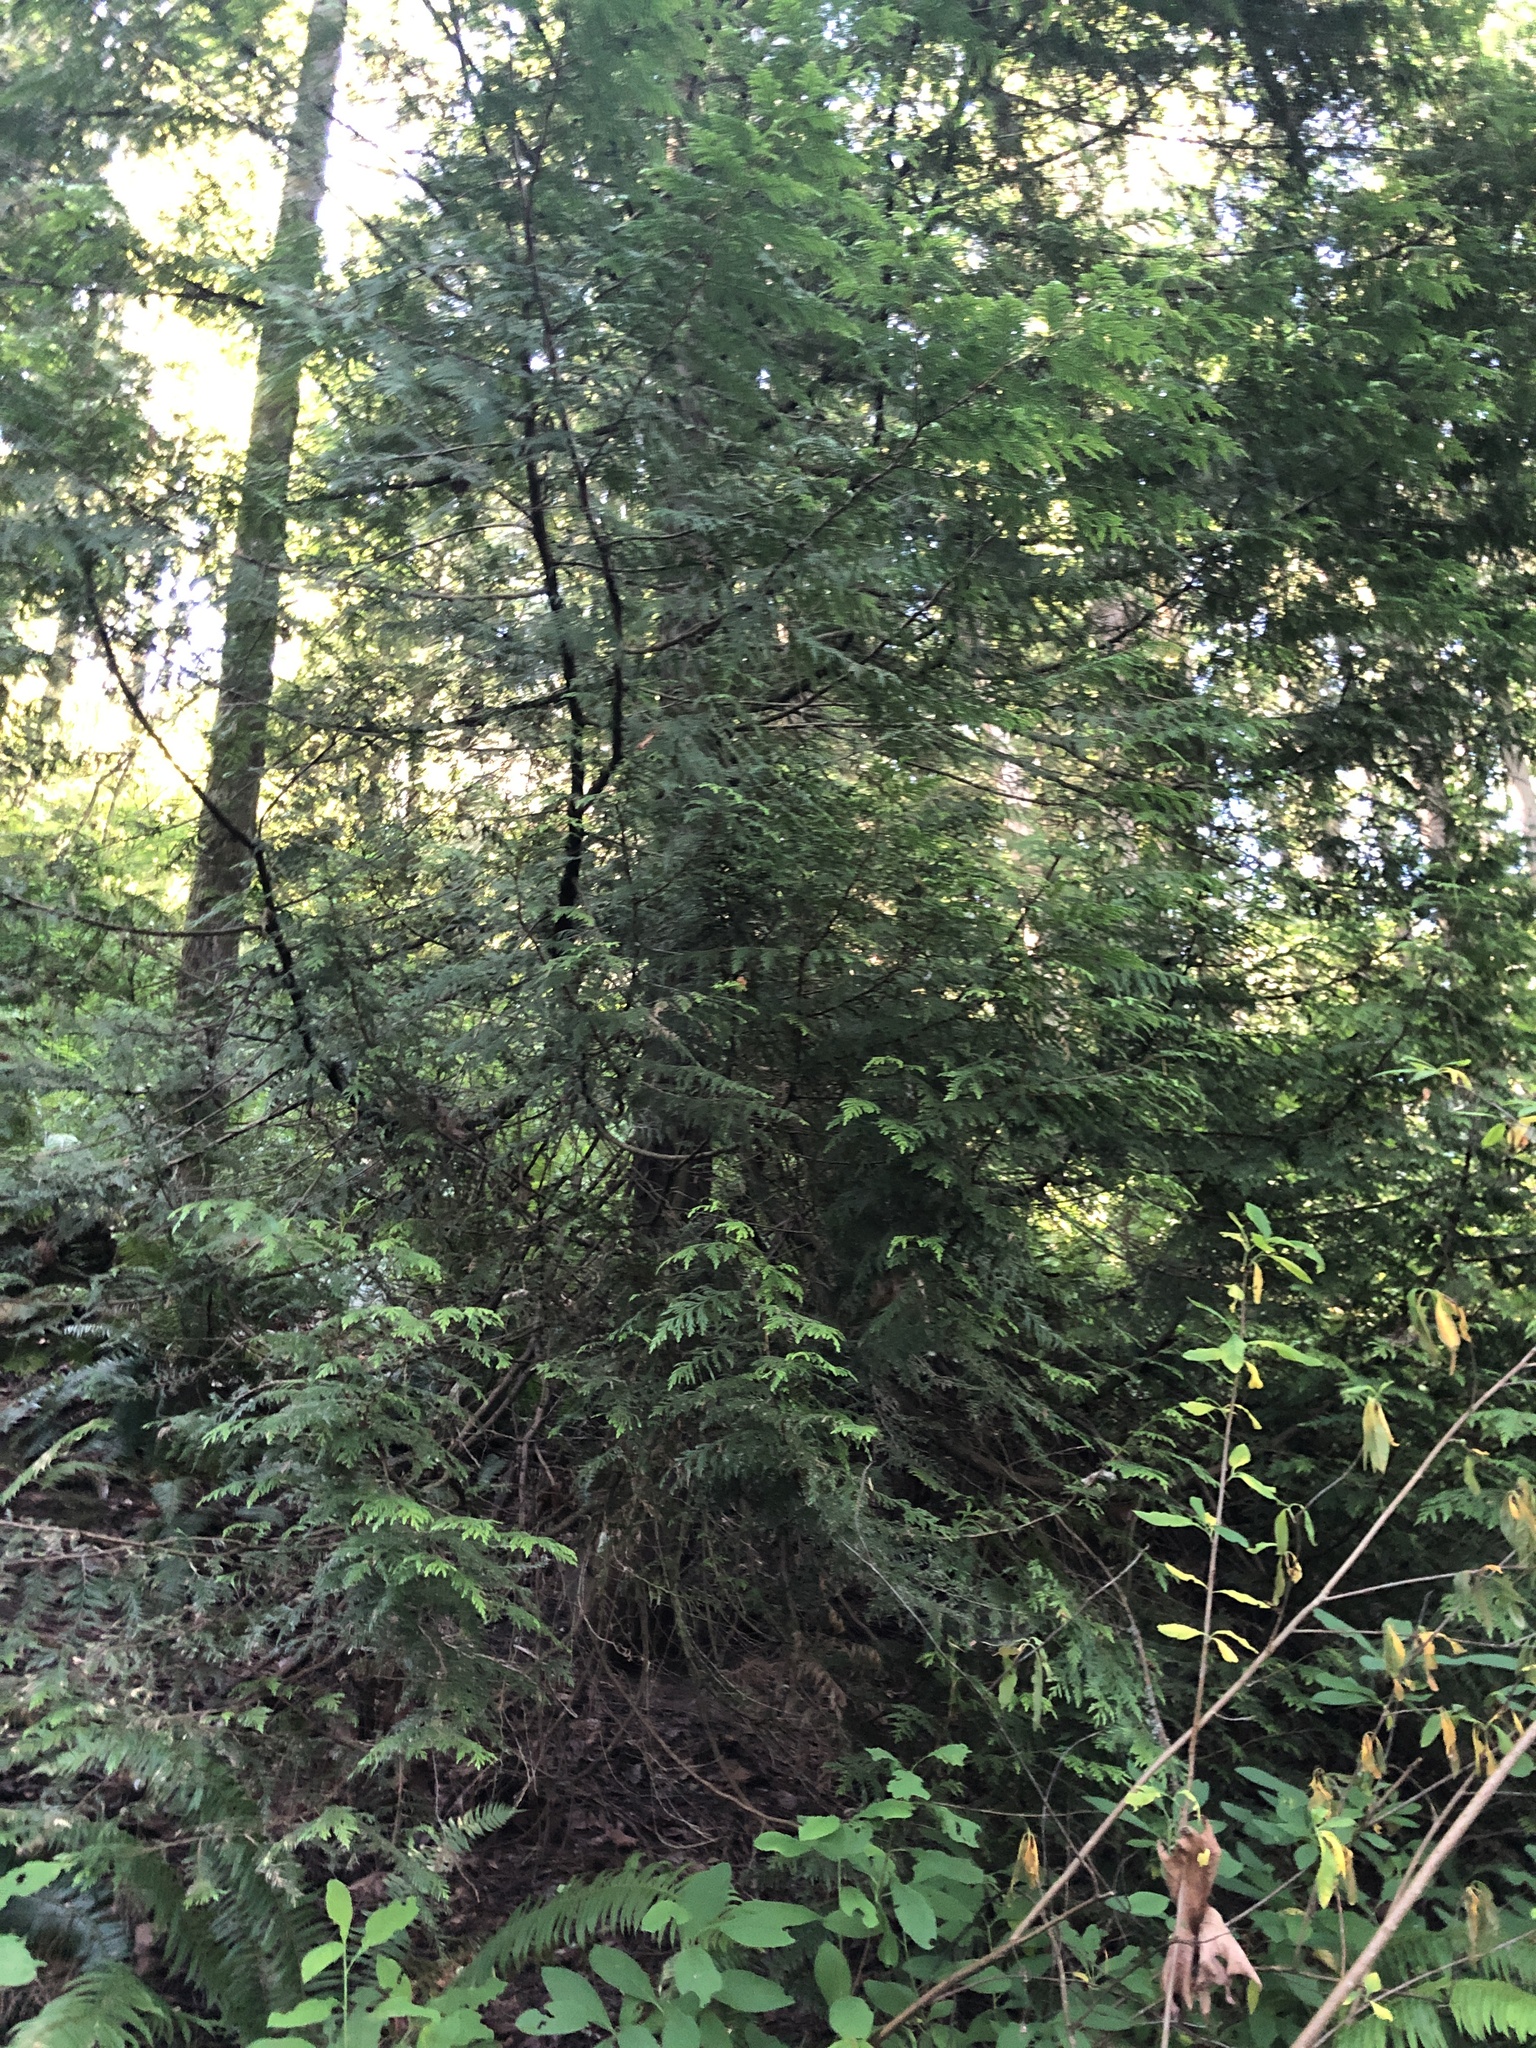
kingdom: Plantae
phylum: Tracheophyta
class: Pinopsida
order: Pinales
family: Cupressaceae
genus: Thuja
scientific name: Thuja plicata
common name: Western red-cedar
